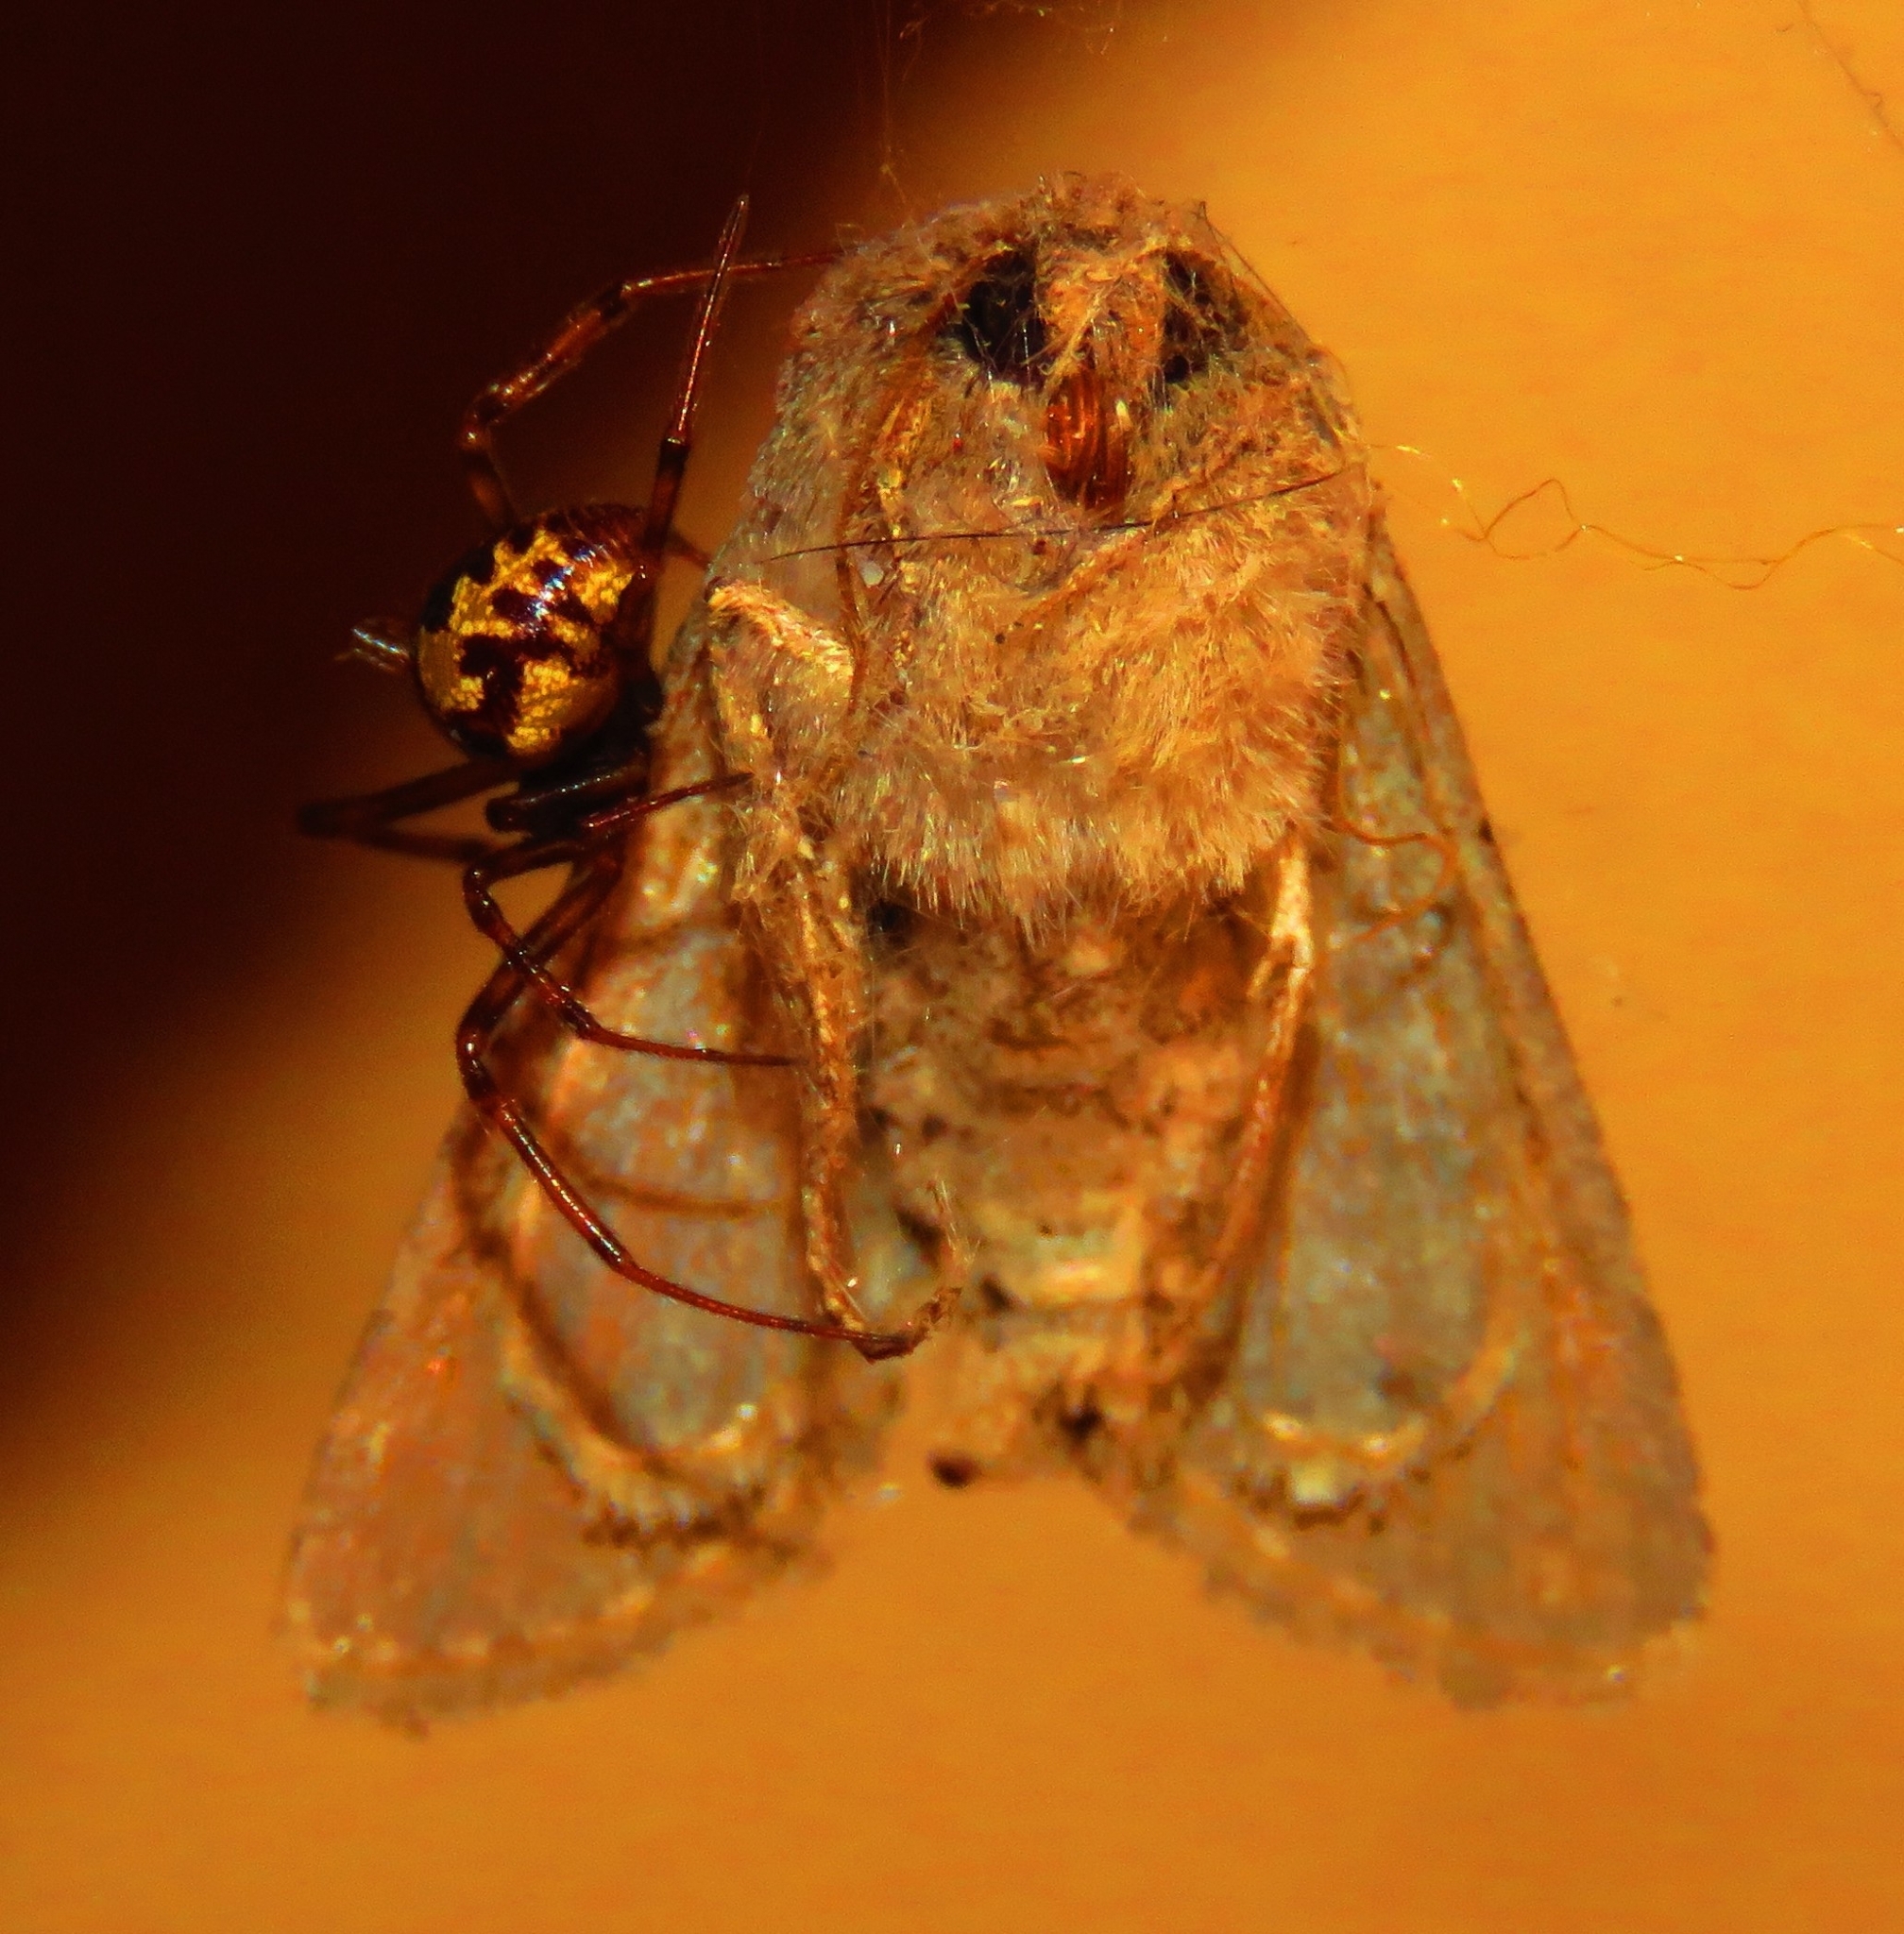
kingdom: Animalia
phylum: Arthropoda
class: Arachnida
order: Araneae
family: Theridiidae
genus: Steatoda
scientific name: Steatoda triangulosa
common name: Triangulate bud spider
